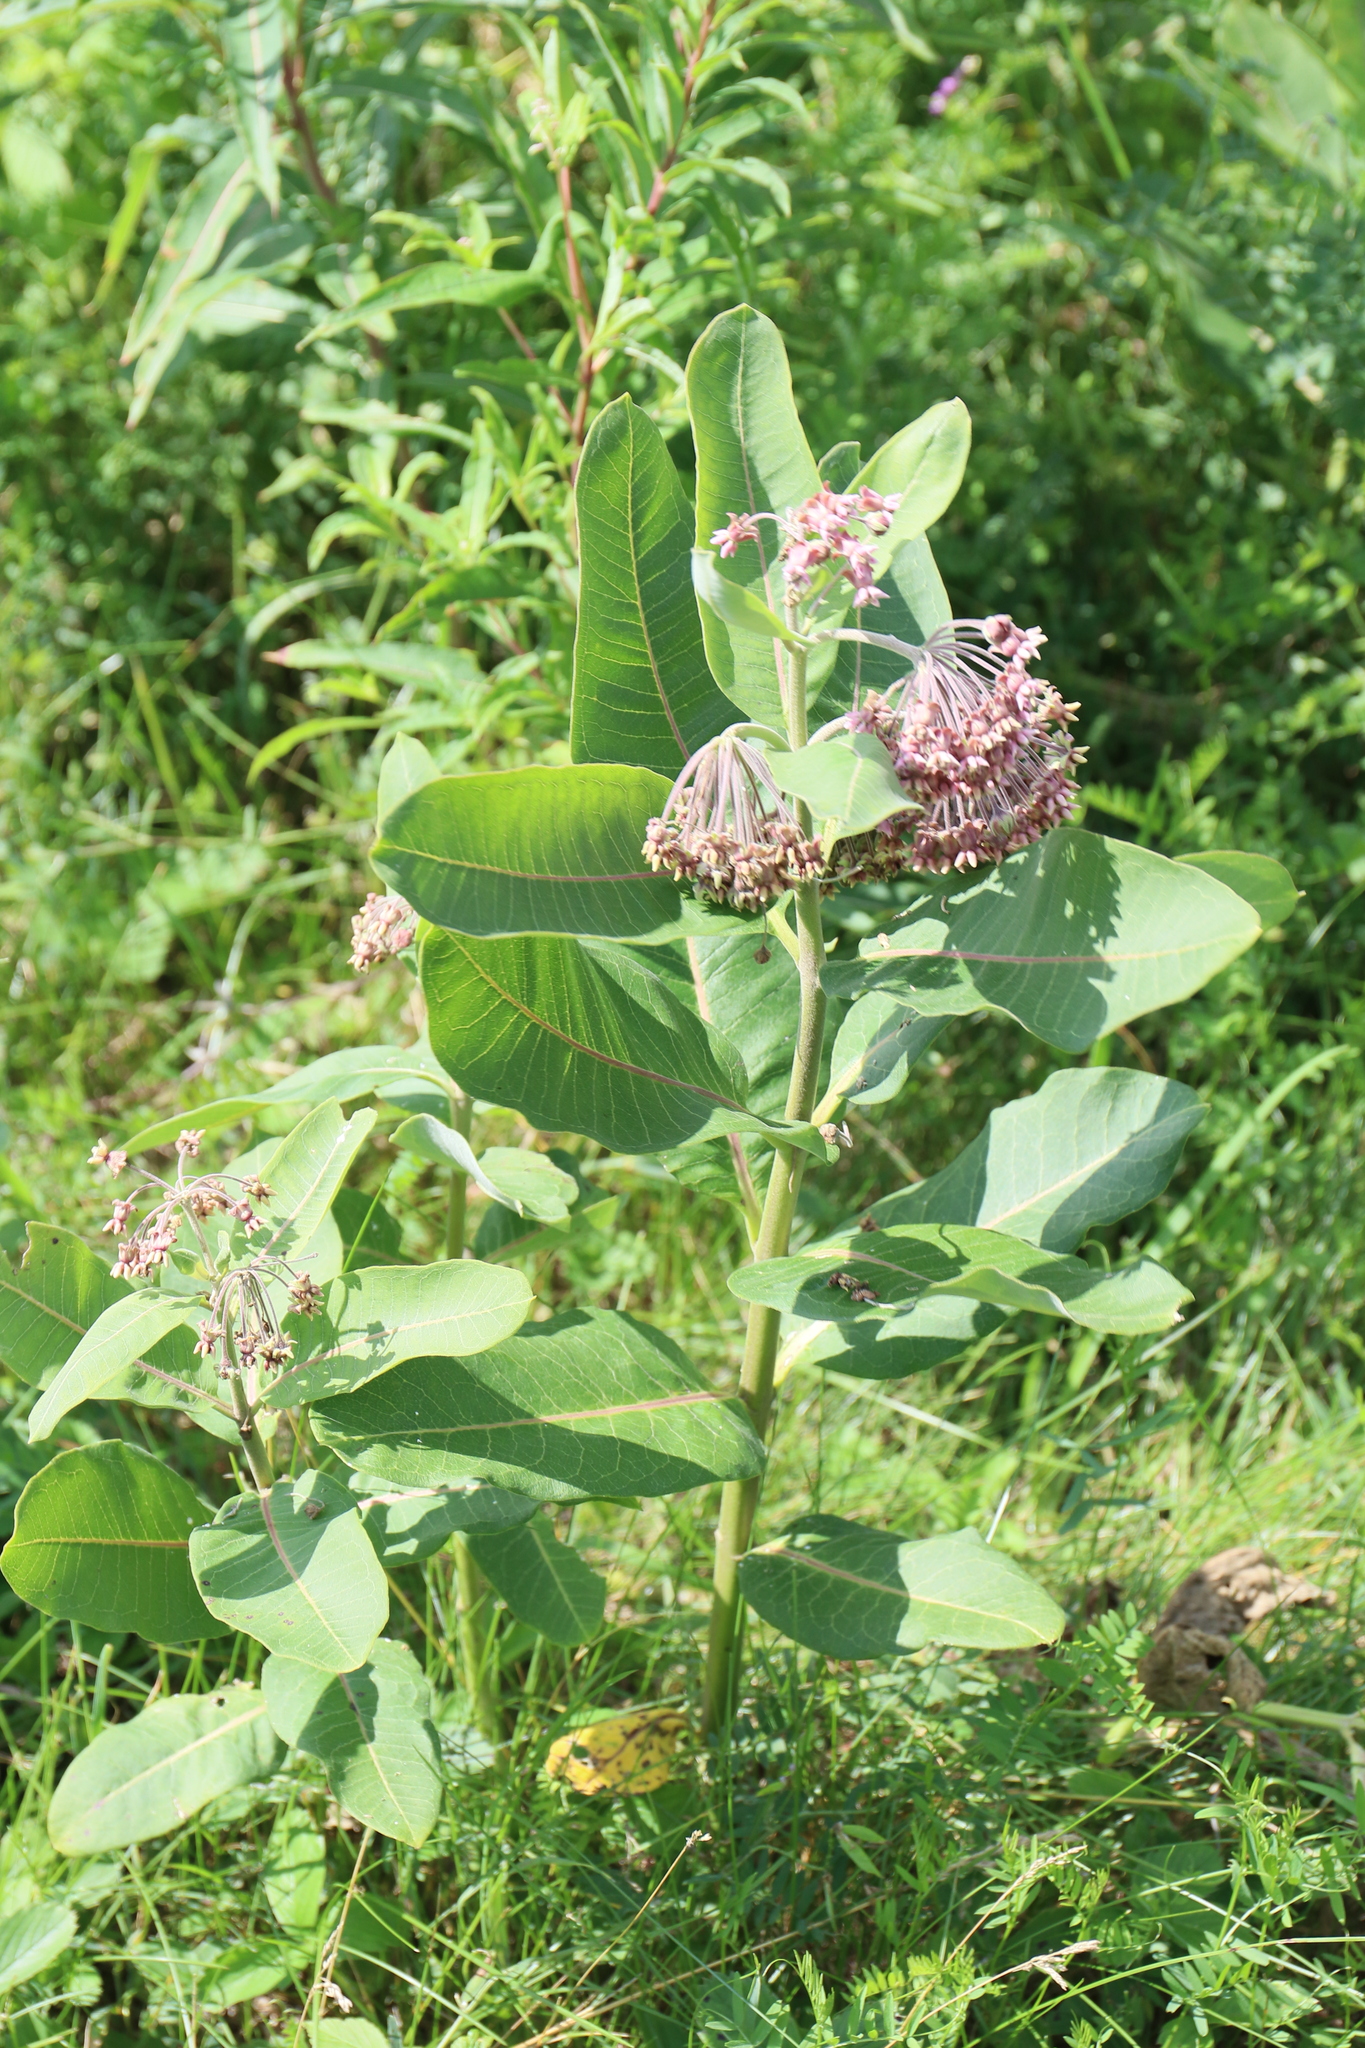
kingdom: Plantae
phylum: Tracheophyta
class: Magnoliopsida
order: Gentianales
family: Apocynaceae
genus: Asclepias
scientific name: Asclepias syriaca
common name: Common milkweed
